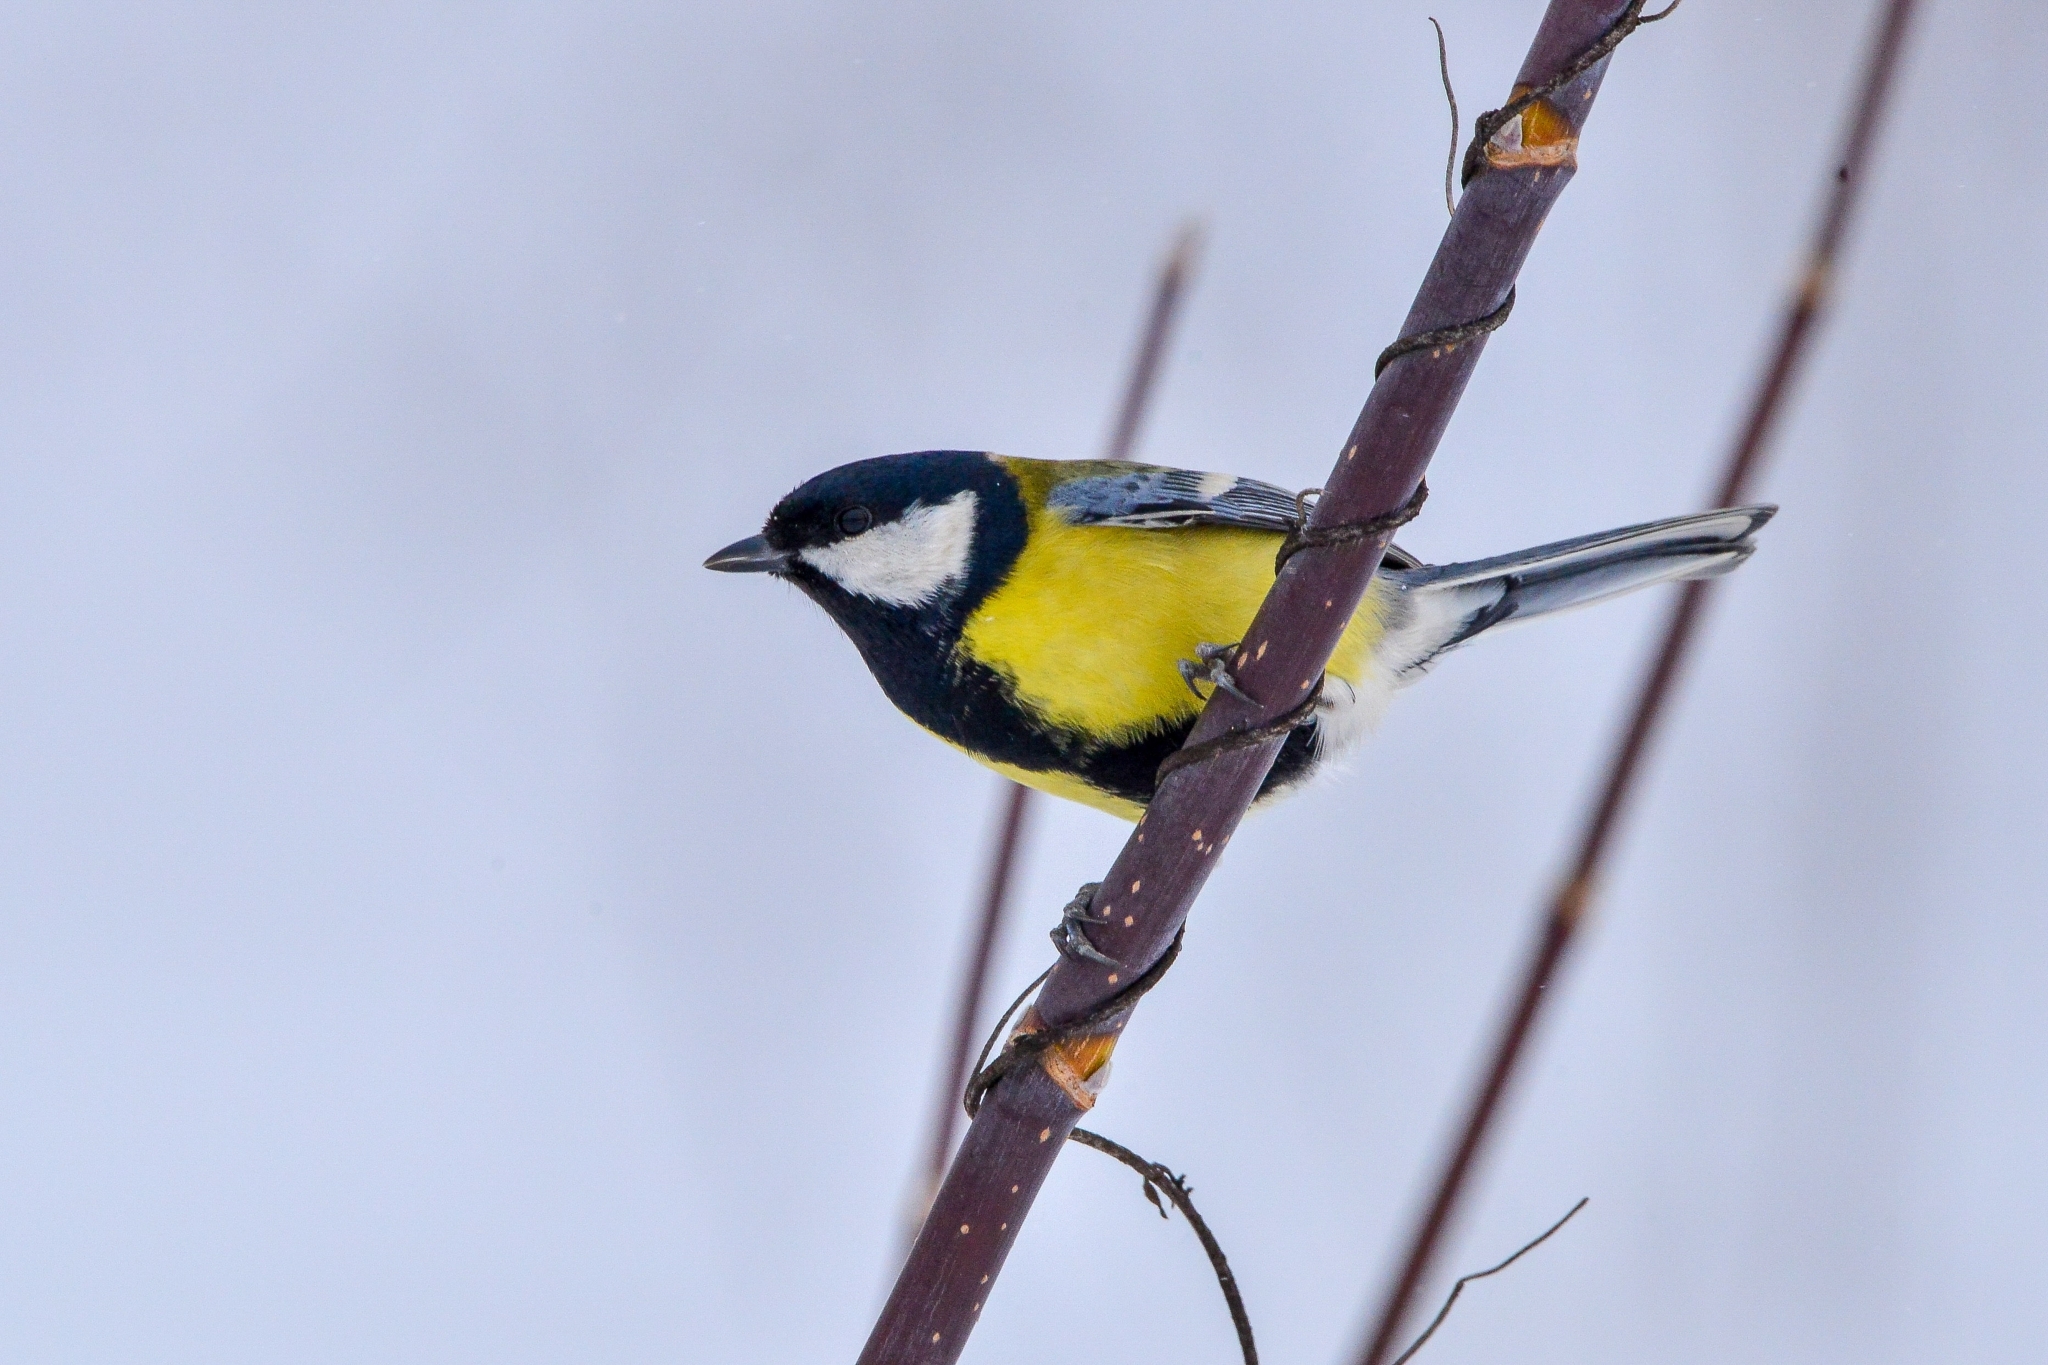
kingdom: Animalia
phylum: Chordata
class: Aves
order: Passeriformes
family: Paridae
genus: Parus
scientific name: Parus major
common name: Great tit
